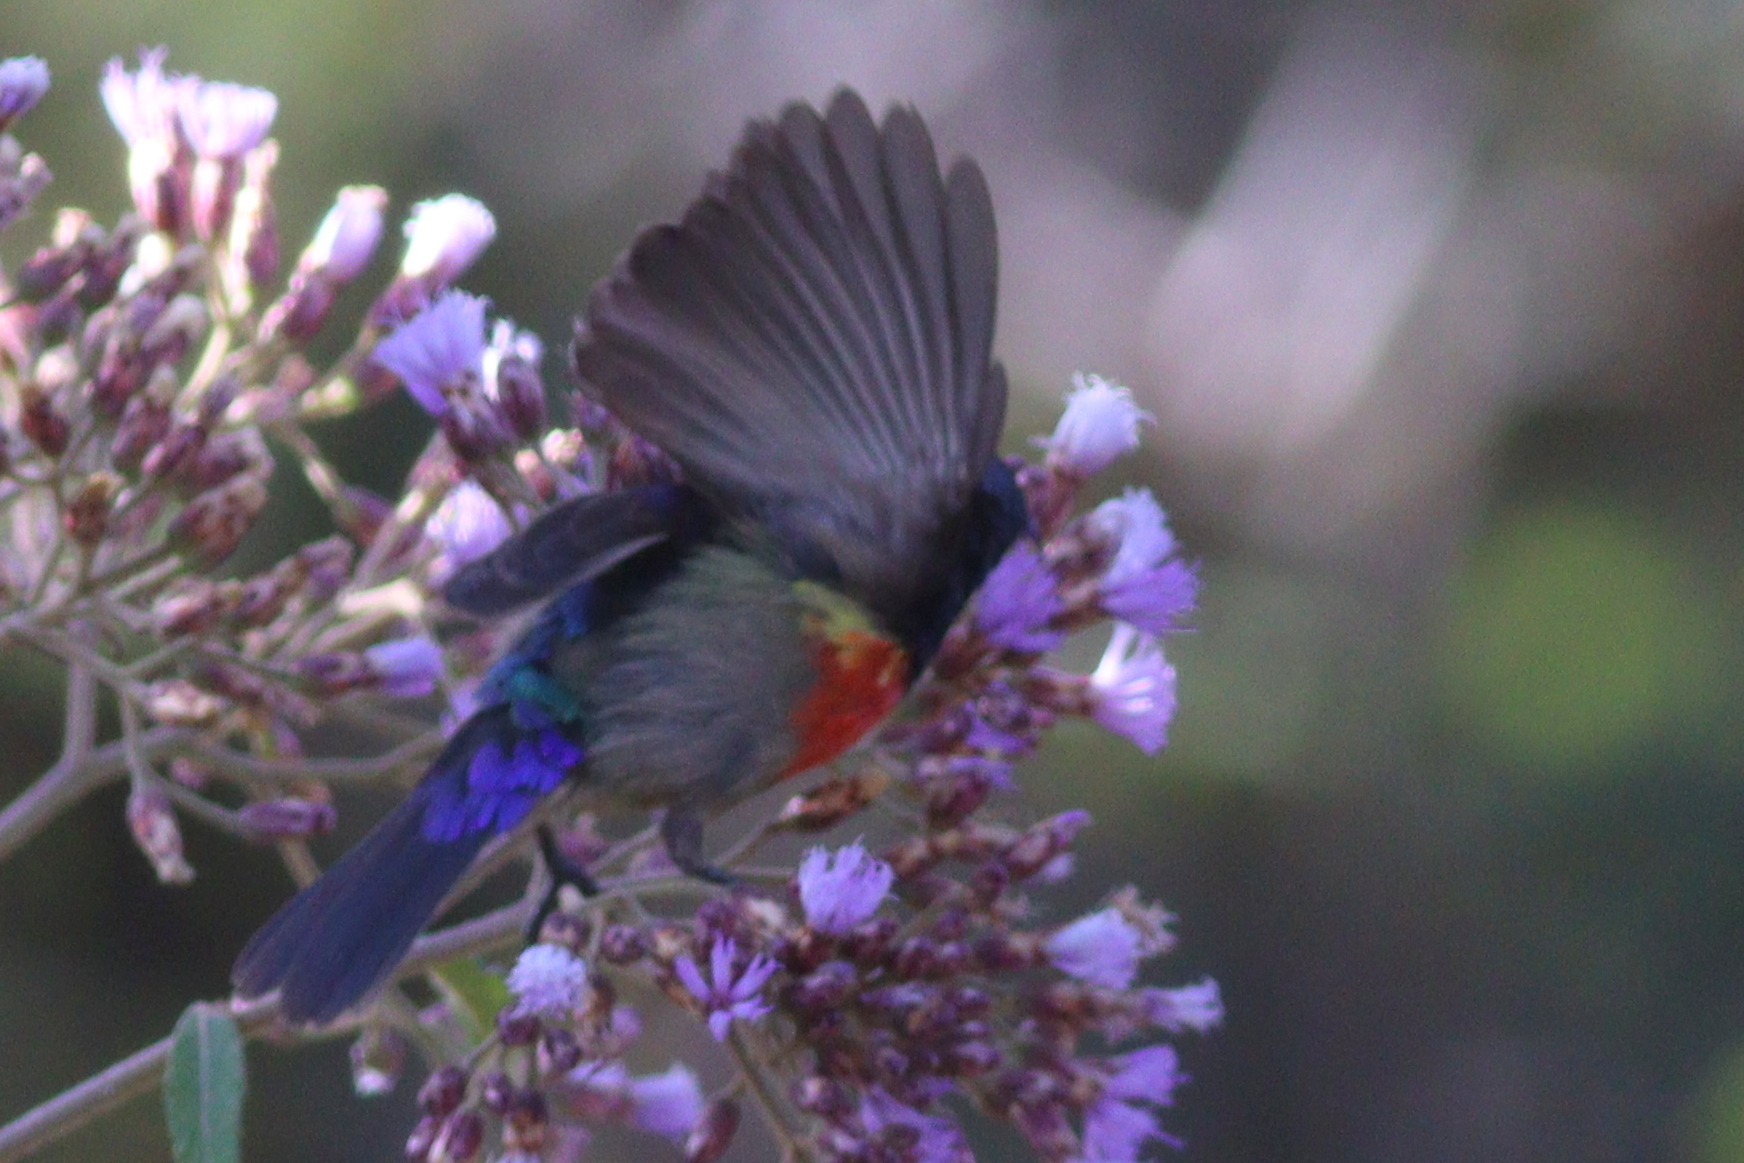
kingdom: Animalia
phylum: Chordata
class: Aves
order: Passeriformes
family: Nectariniidae
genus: Cinnyris
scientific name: Cinnyris reichenowi
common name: Northern double-collared sunbird
